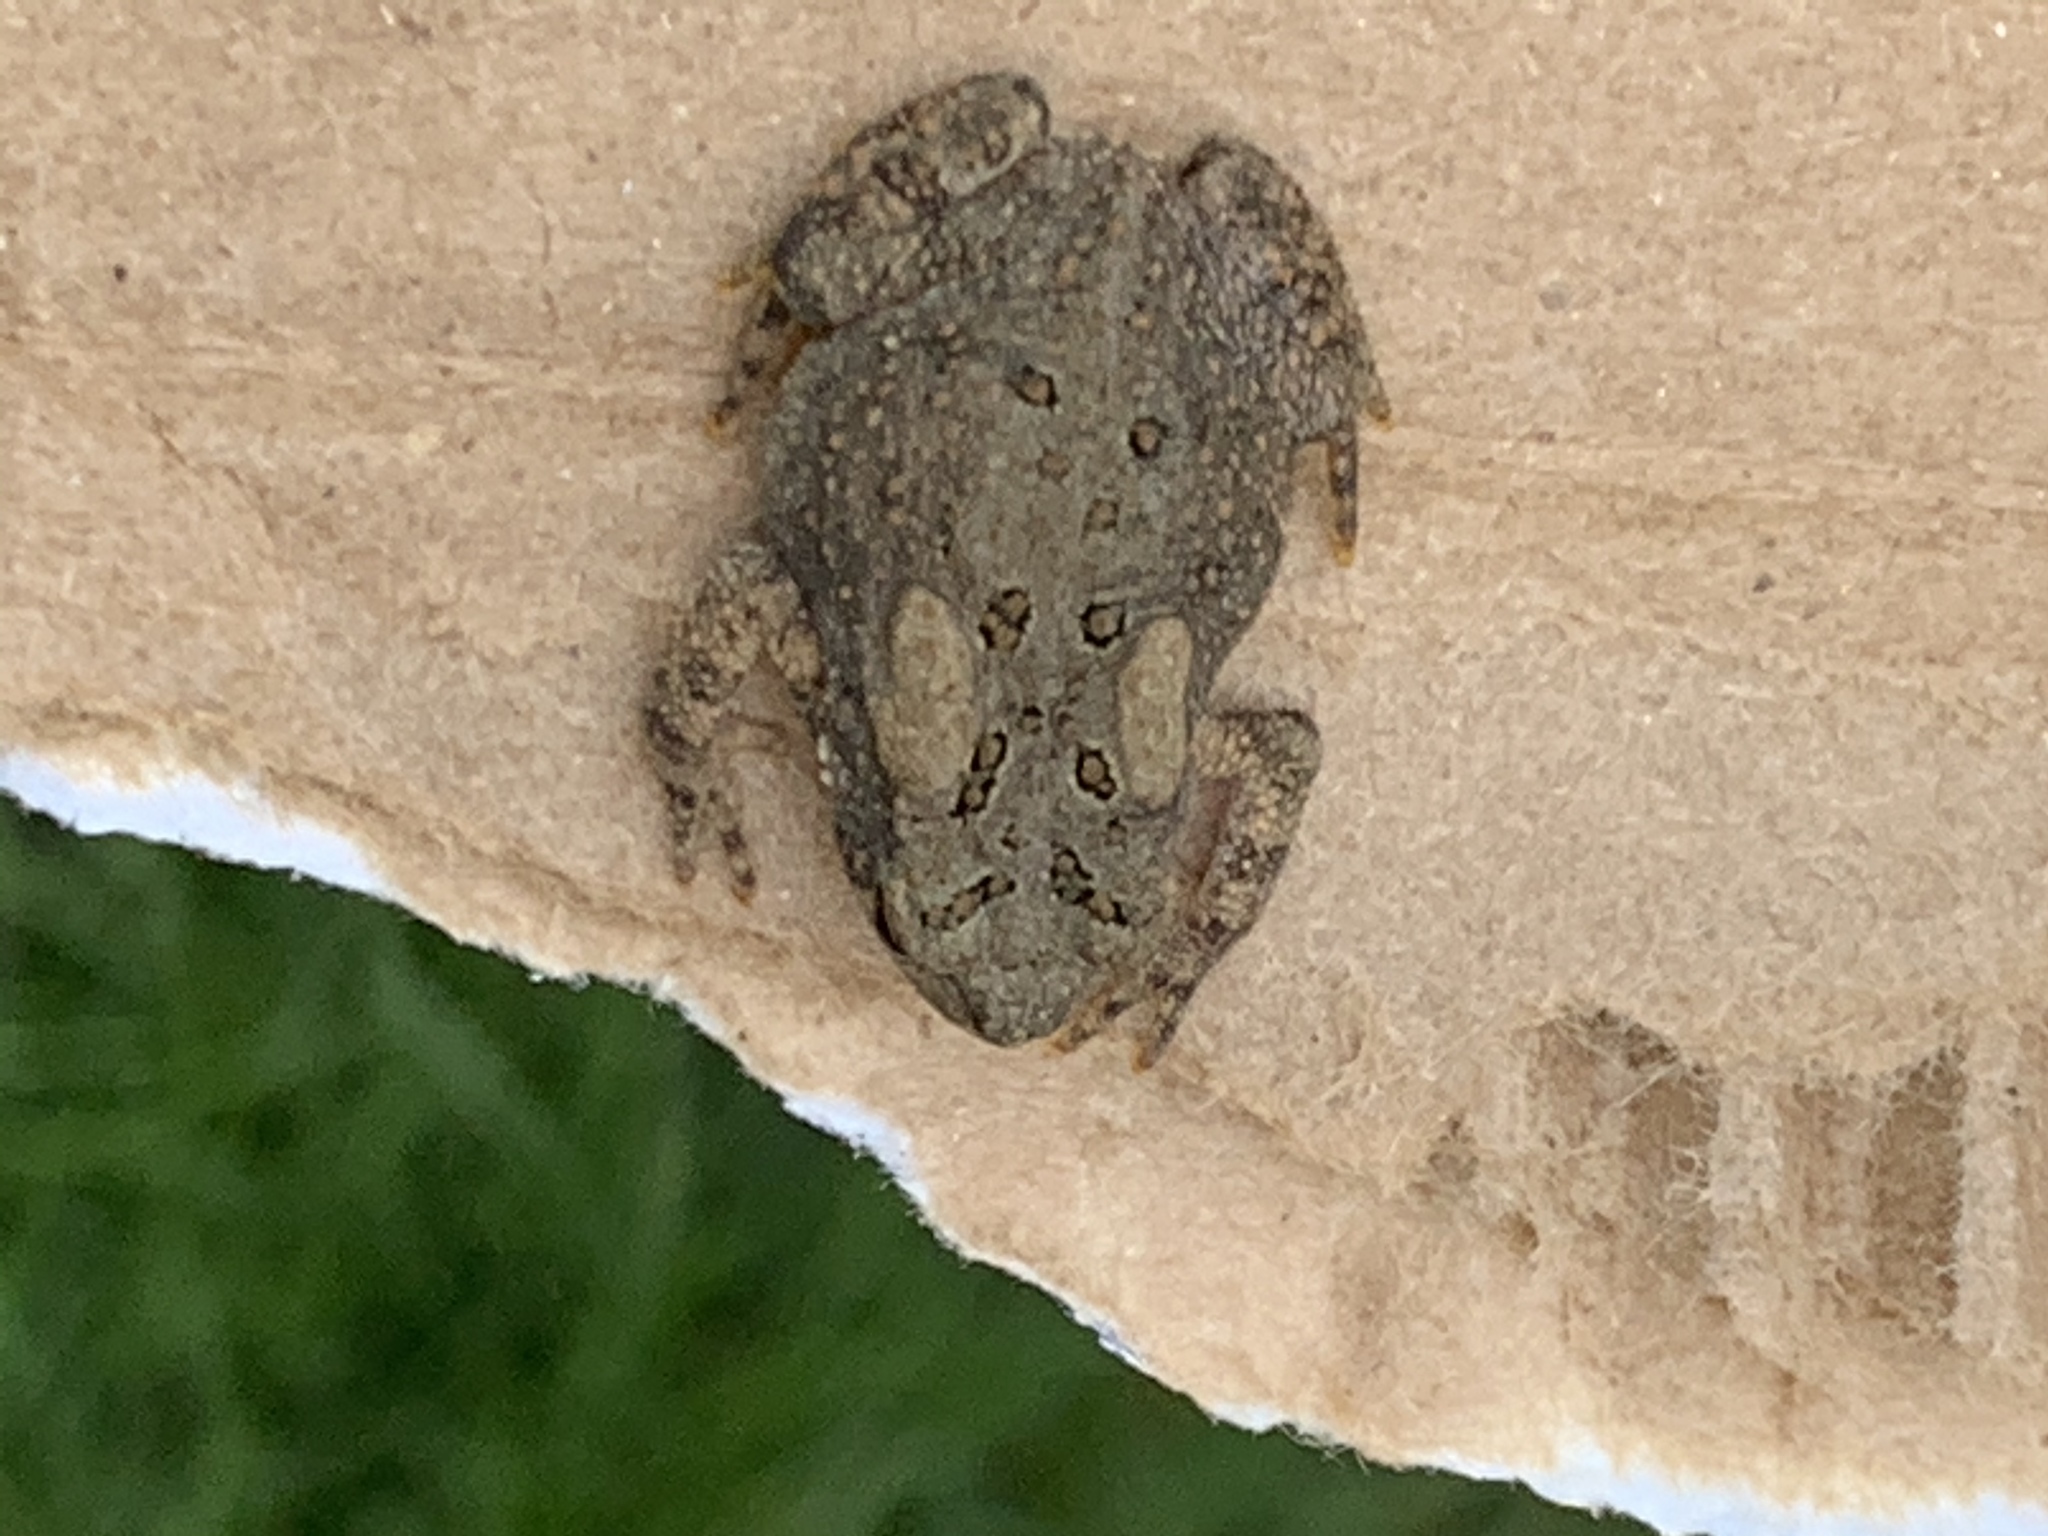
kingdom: Animalia
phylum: Chordata
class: Amphibia
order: Anura
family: Bufonidae
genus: Anaxyrus
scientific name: Anaxyrus americanus
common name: American toad
